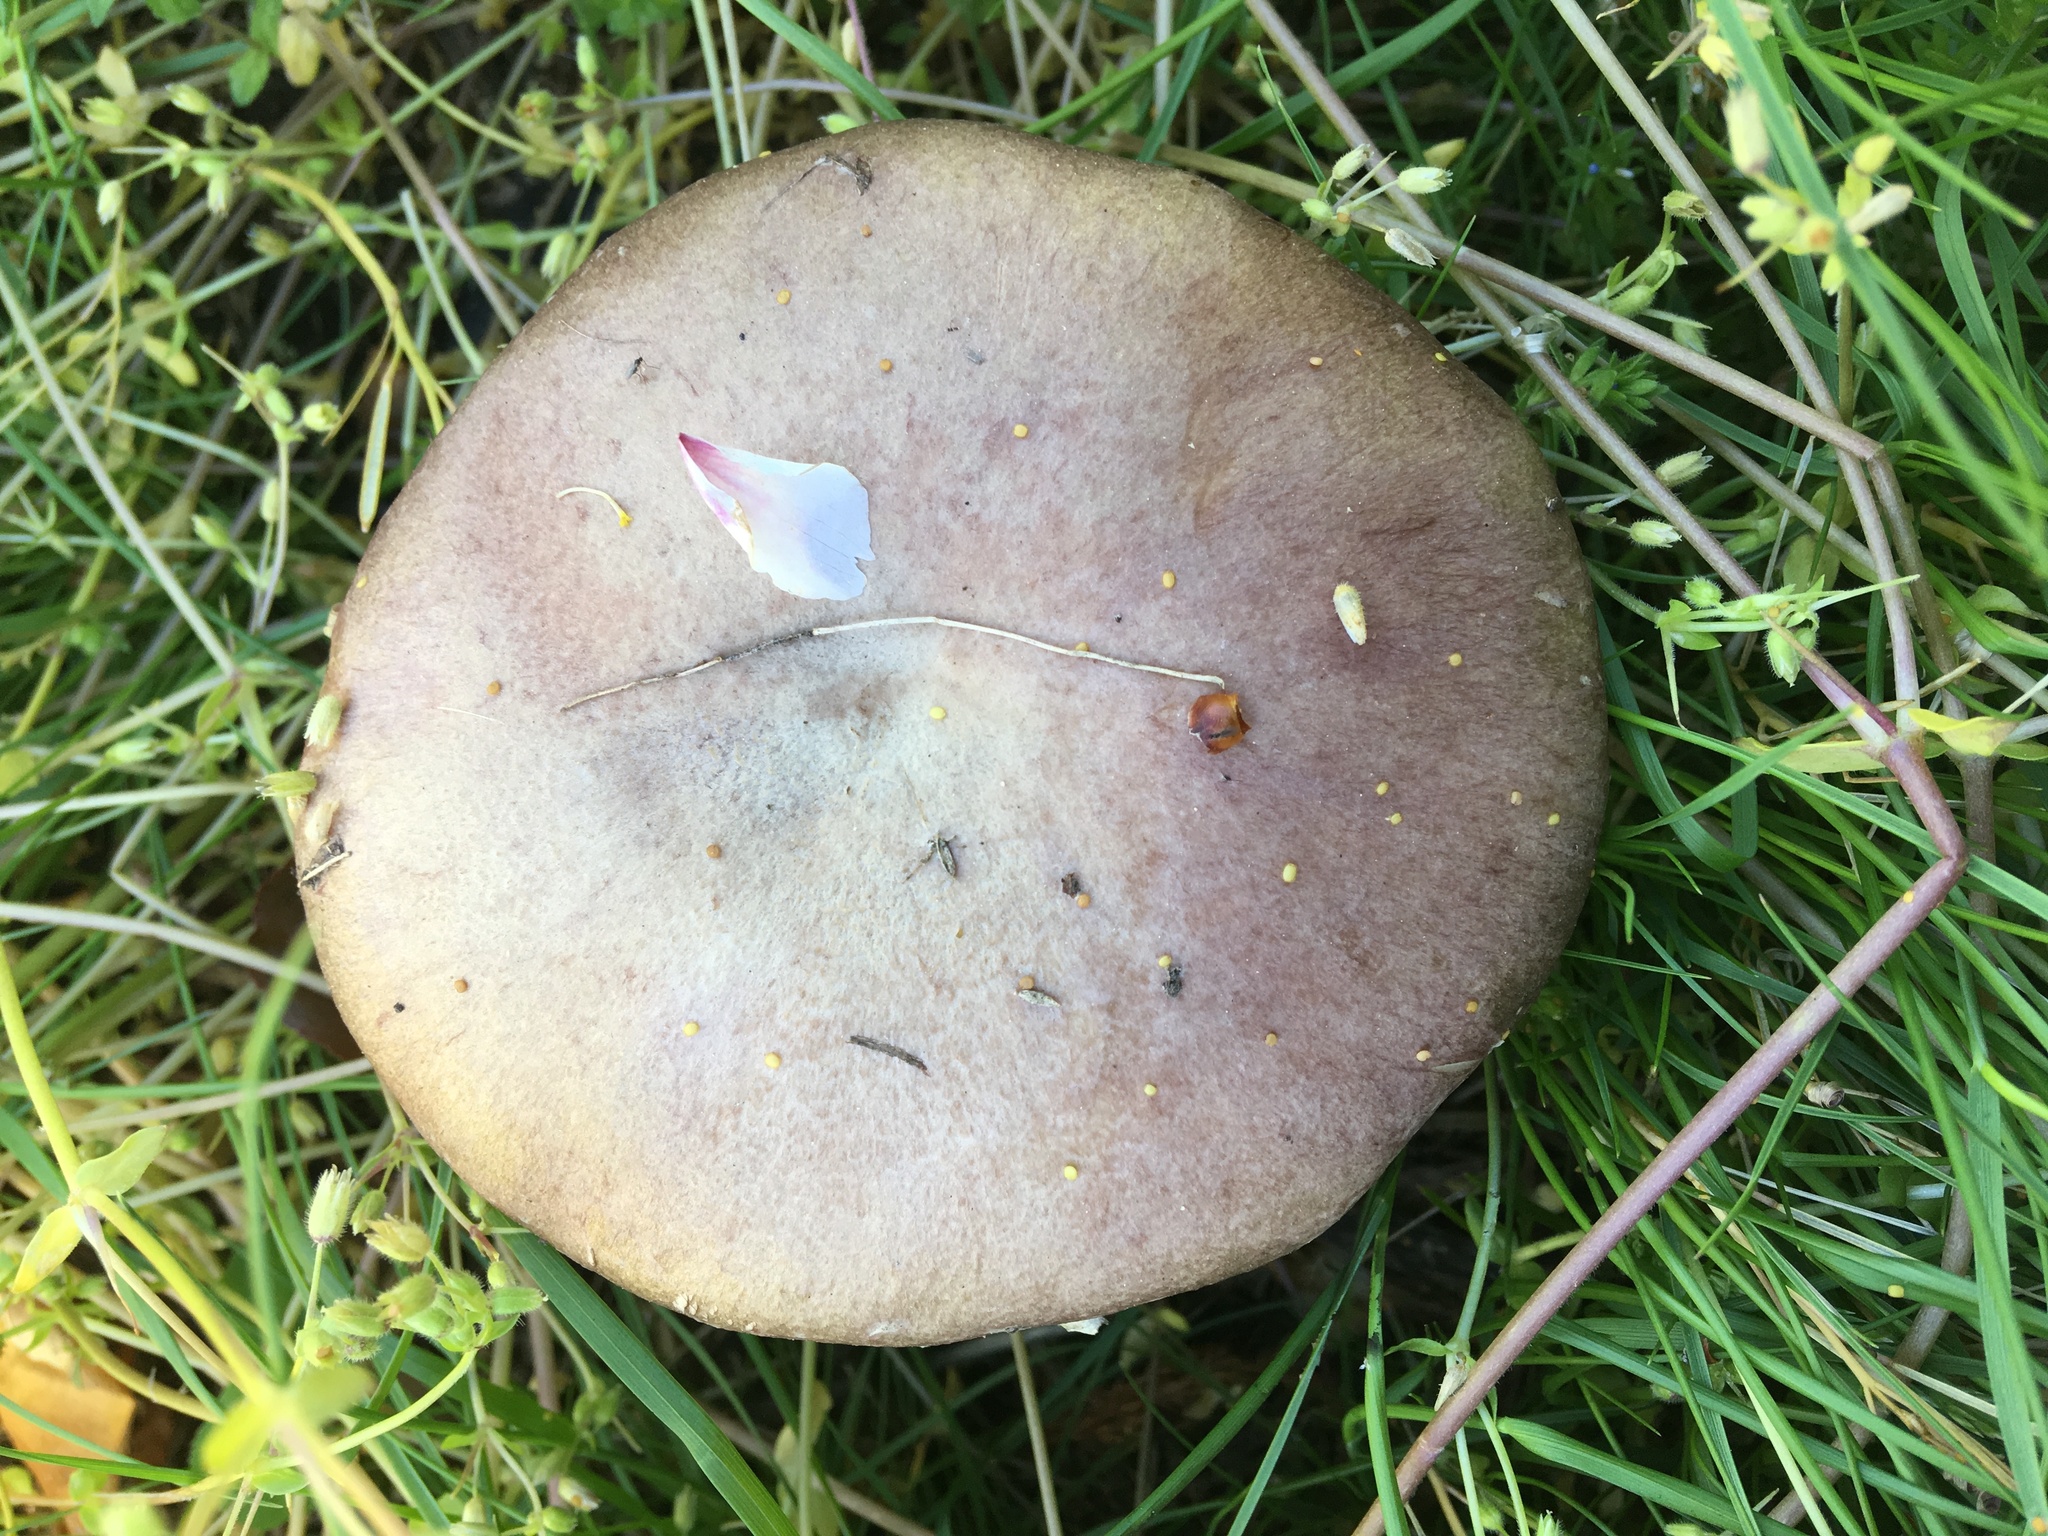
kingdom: Fungi
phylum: Basidiomycota
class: Agaricomycetes
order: Agaricales
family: Strophariaceae
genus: Stropharia
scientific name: Stropharia rugosoannulata
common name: Wine roundhead
